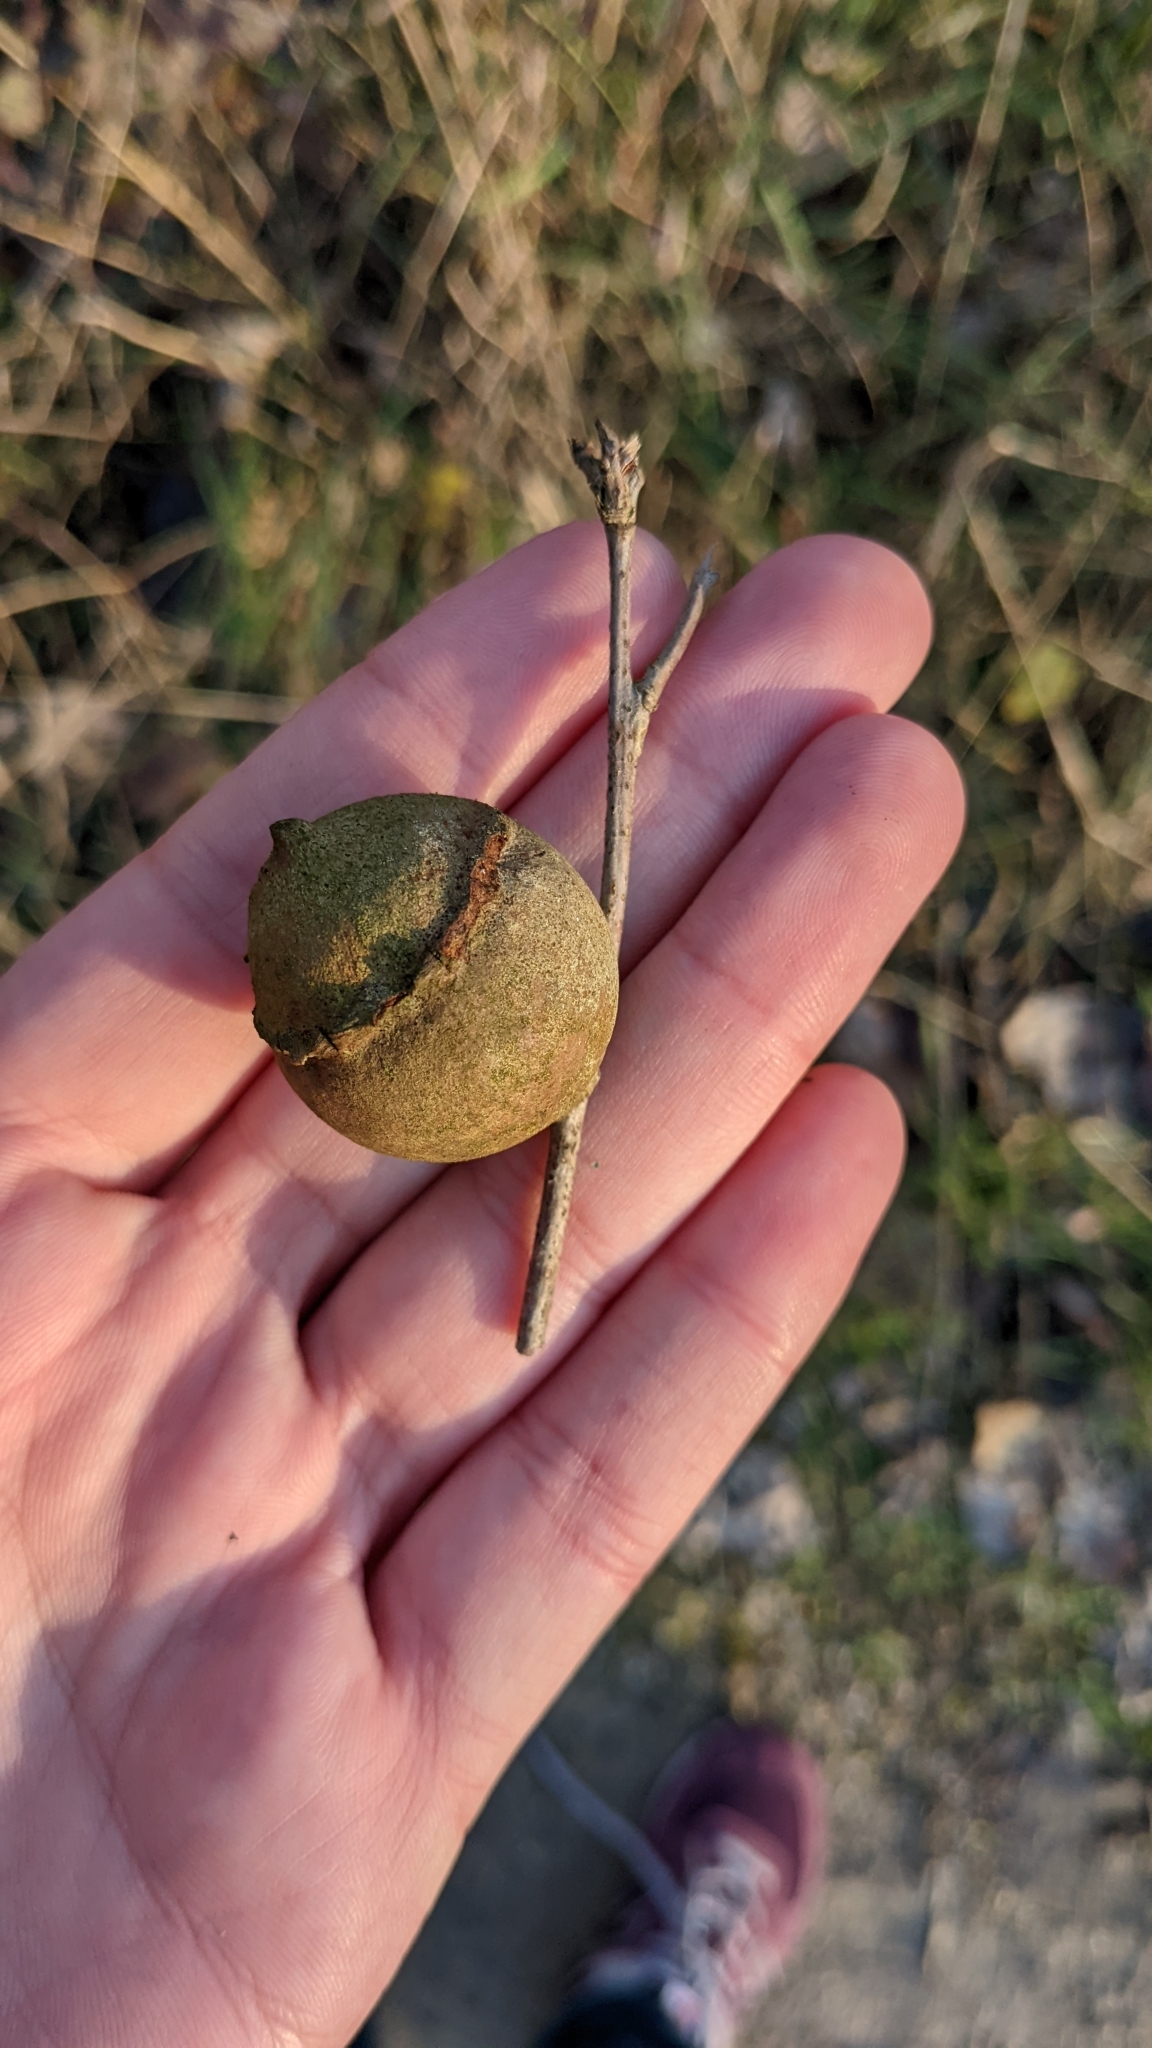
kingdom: Animalia
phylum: Arthropoda
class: Insecta
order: Hymenoptera
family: Cynipidae
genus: Andricus
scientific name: Andricus quercustozae
